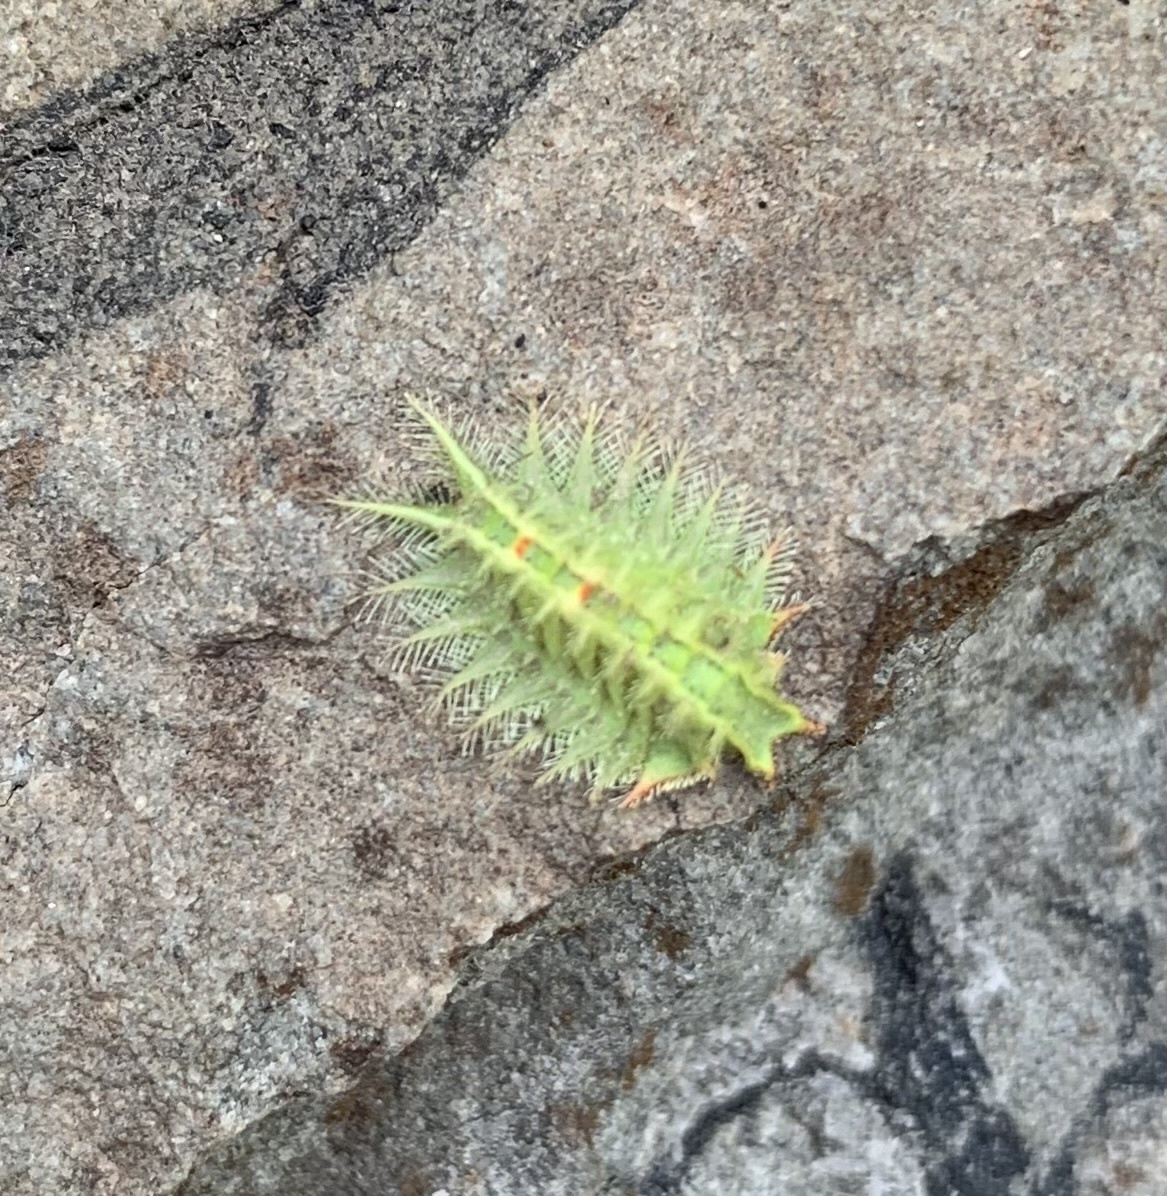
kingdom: Animalia
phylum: Arthropoda
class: Insecta
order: Lepidoptera
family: Limacodidae
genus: Isa
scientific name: Isa textula
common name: Crowned slug moth
